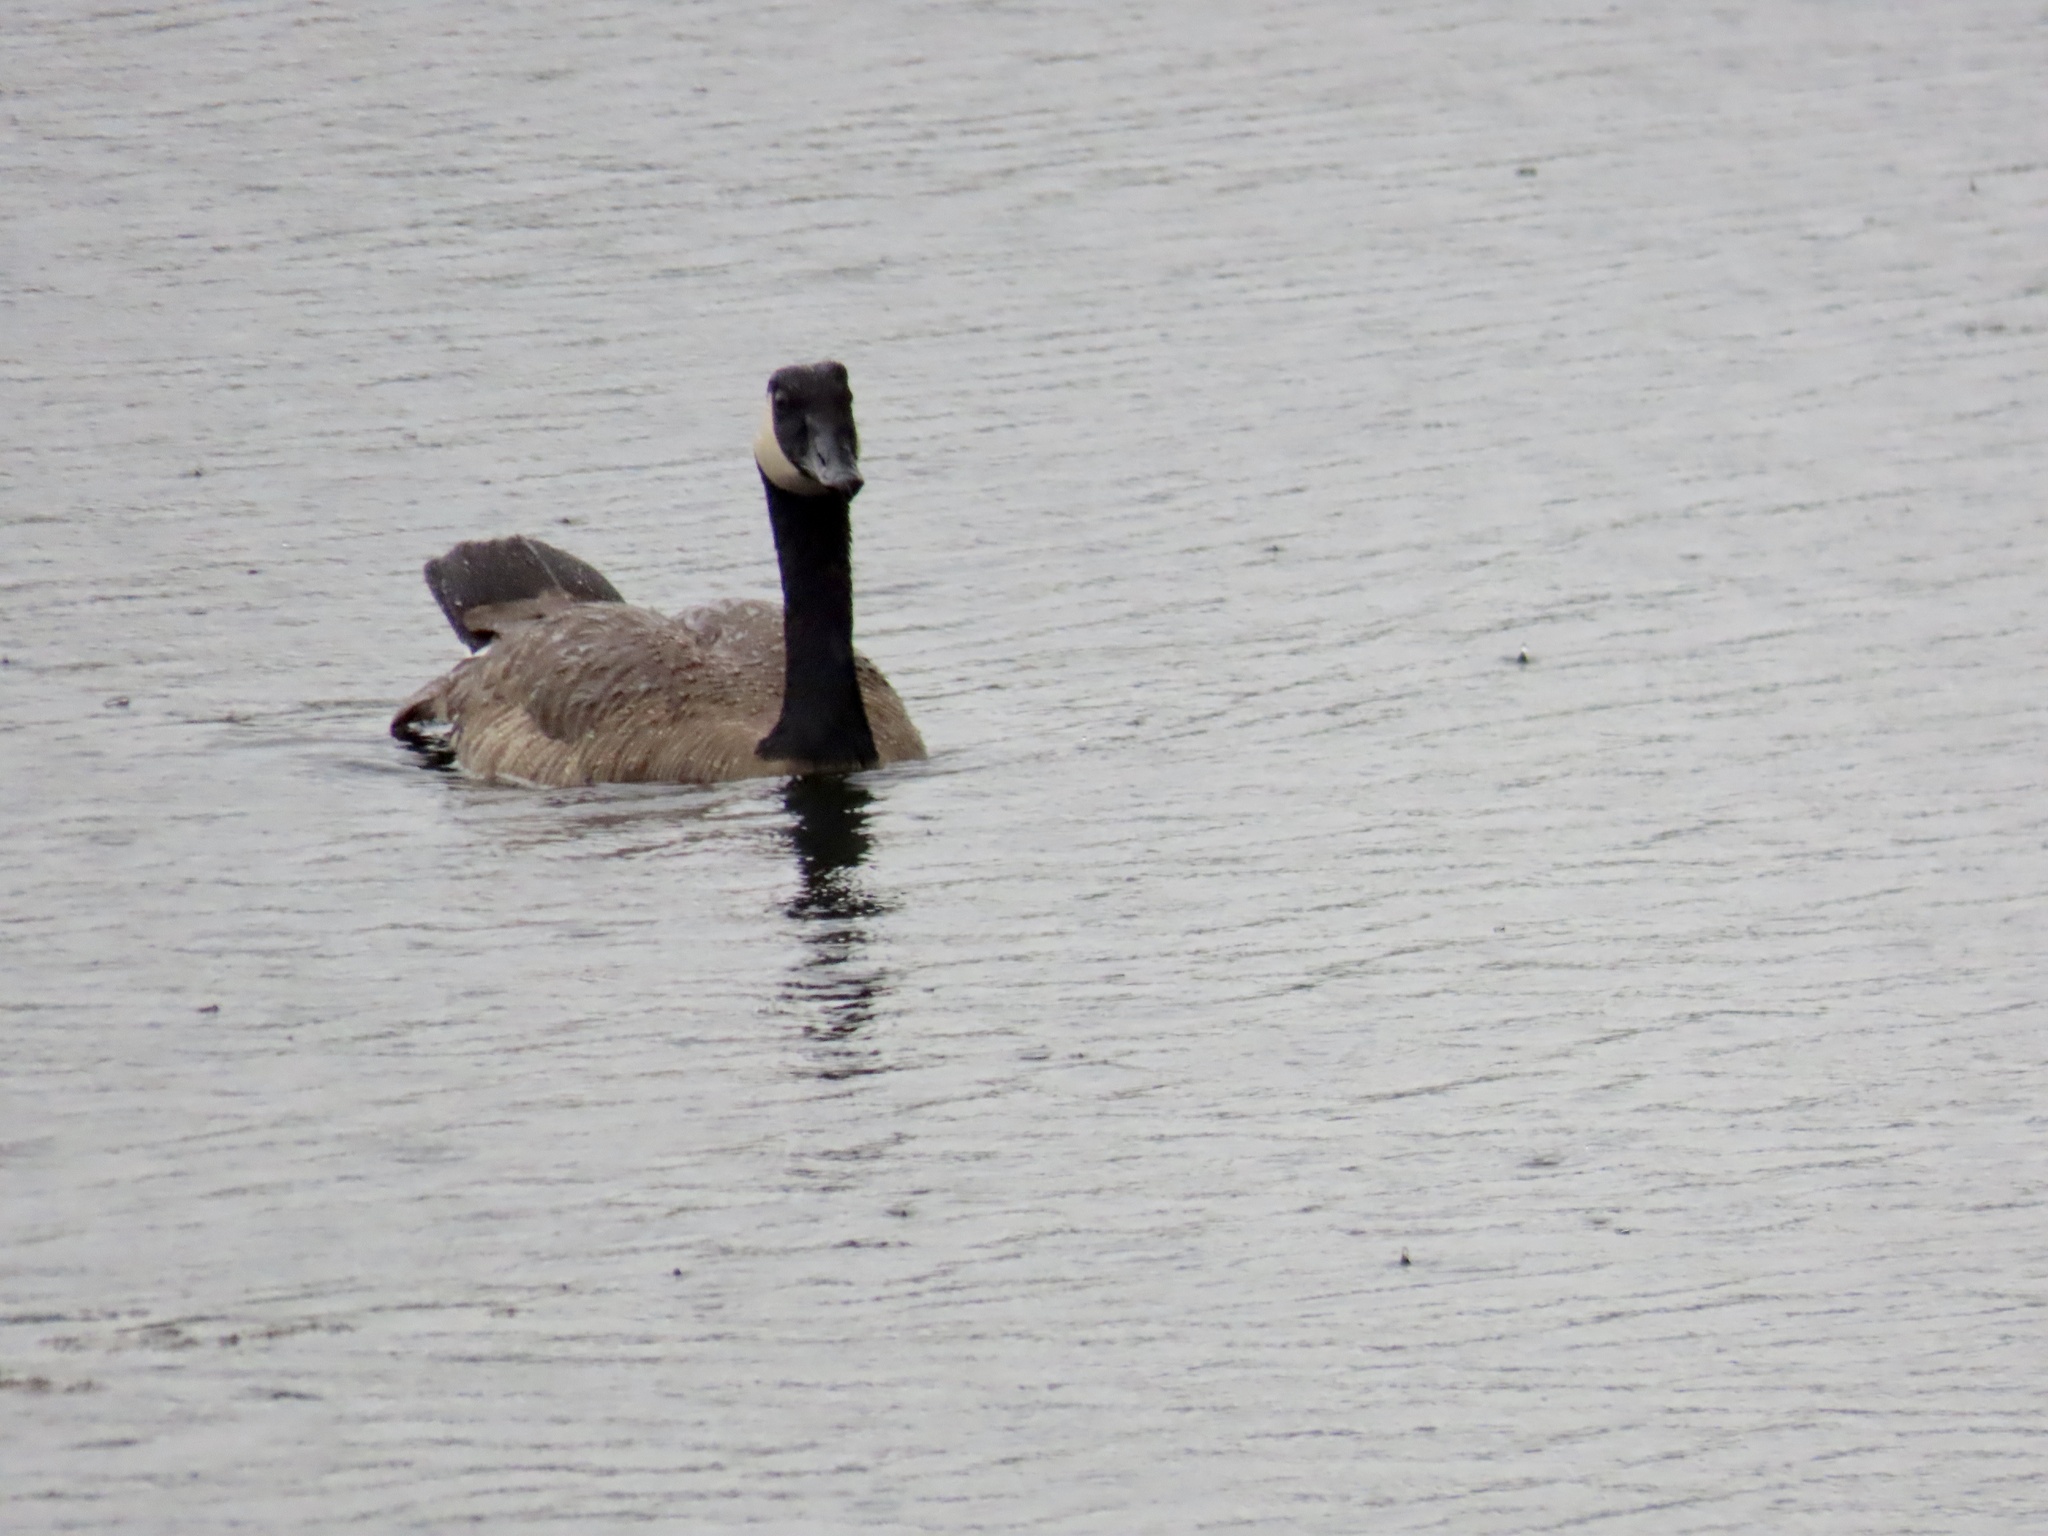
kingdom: Animalia
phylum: Chordata
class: Aves
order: Anseriformes
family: Anatidae
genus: Branta
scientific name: Branta canadensis
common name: Canada goose
